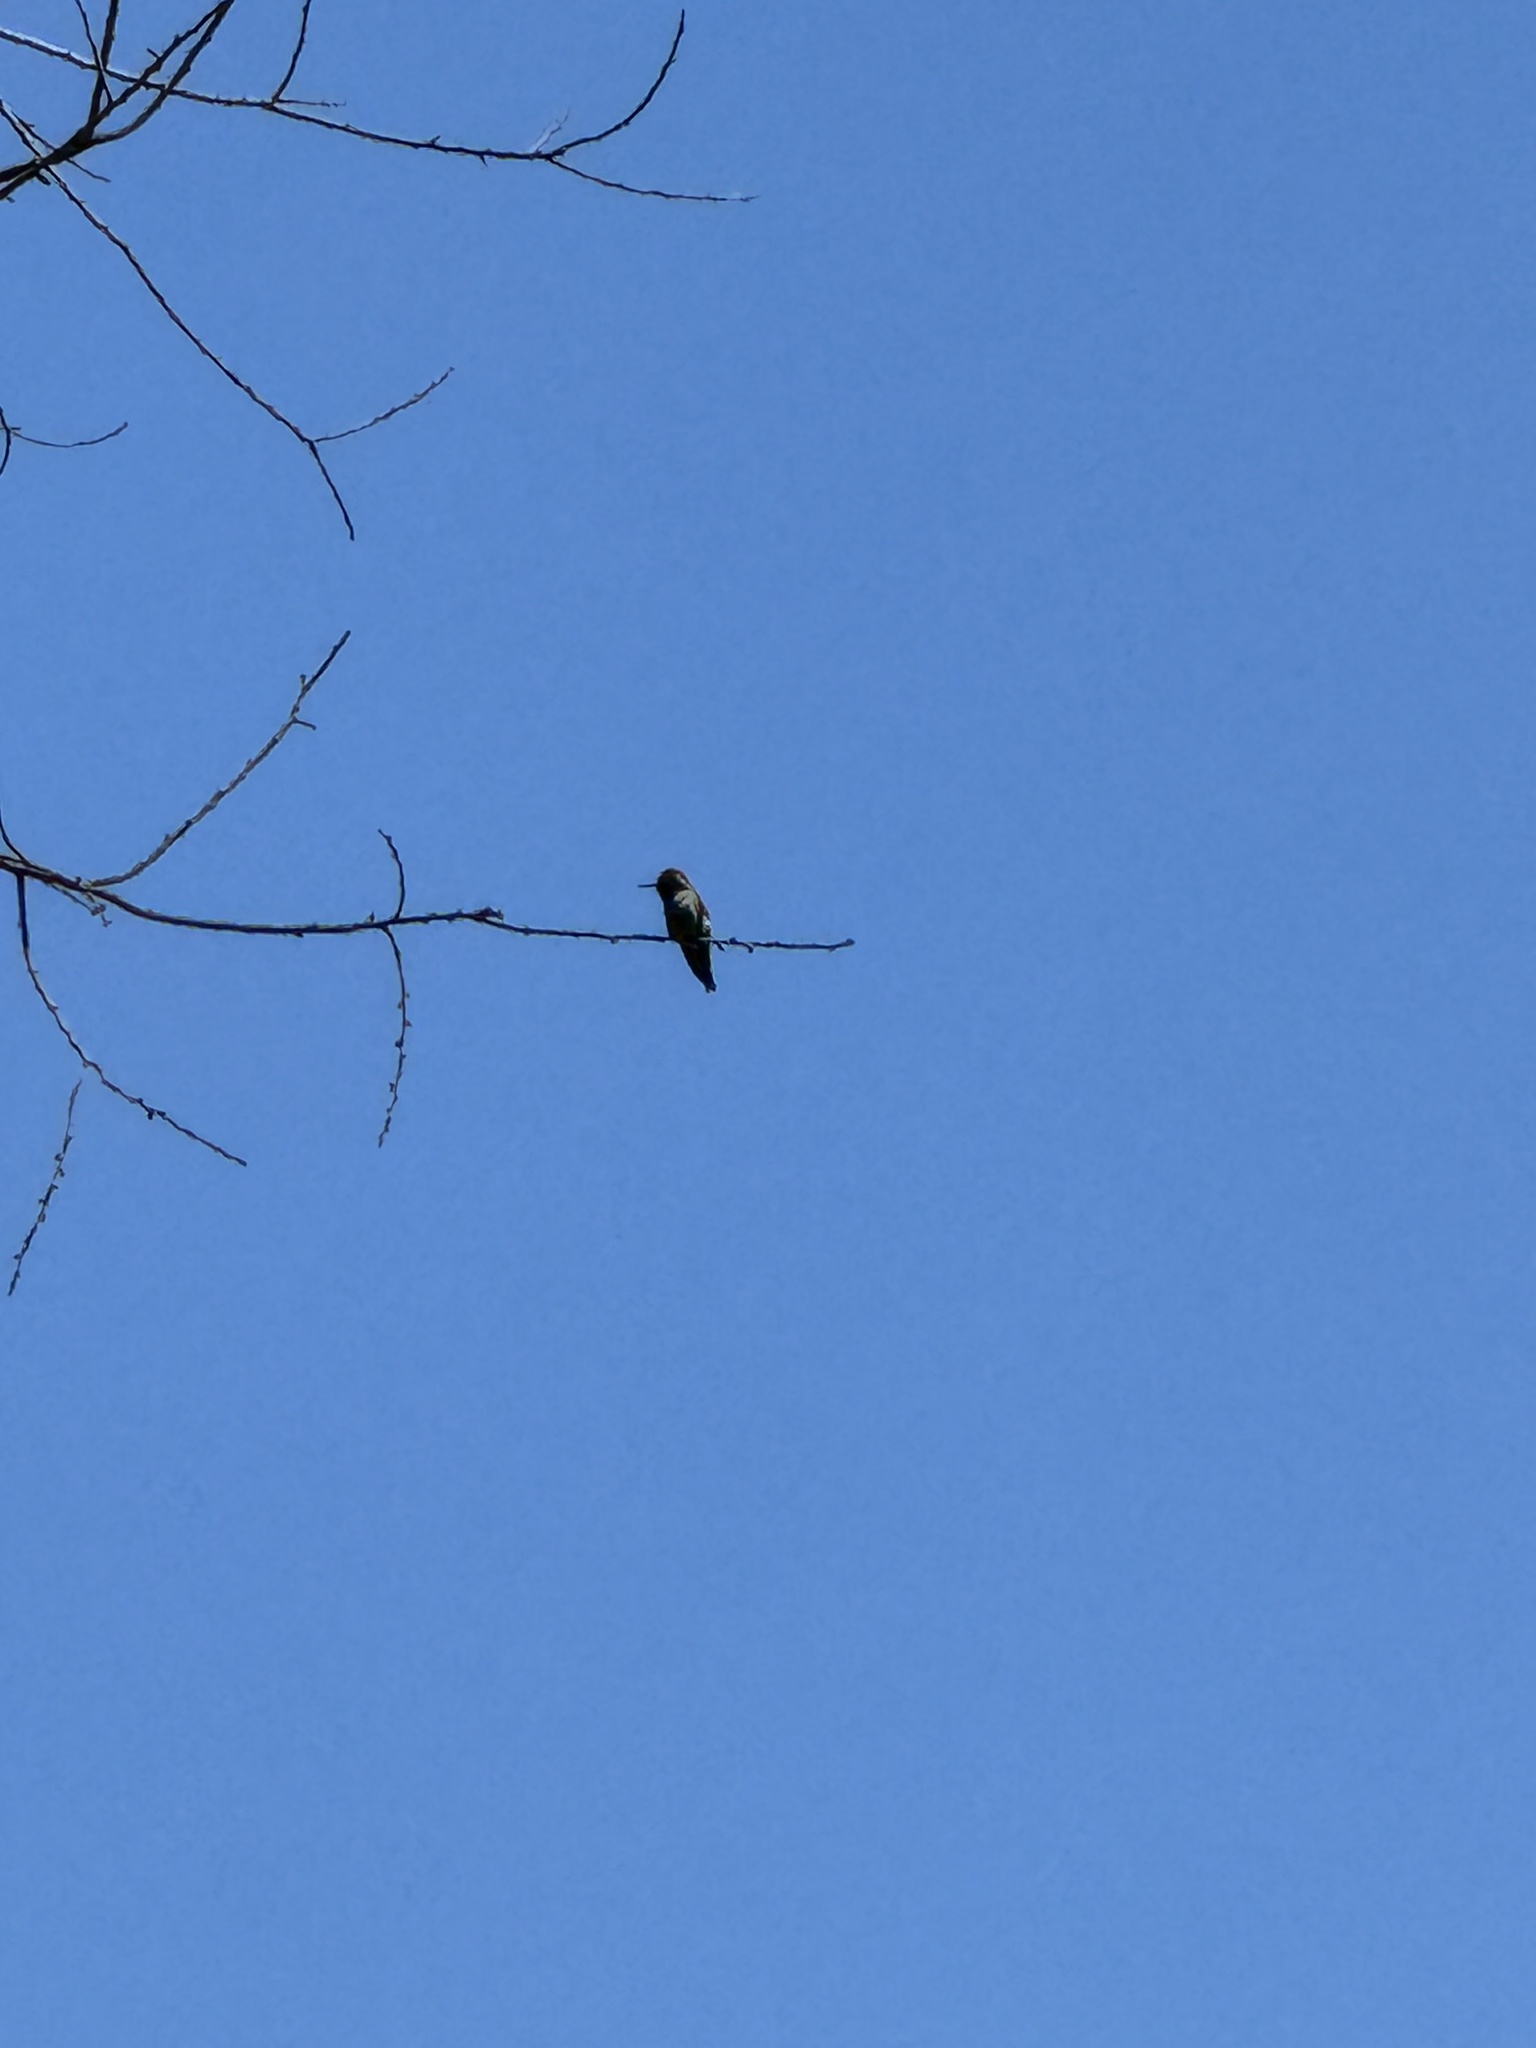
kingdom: Animalia
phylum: Chordata
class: Aves
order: Apodiformes
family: Trochilidae
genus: Calypte
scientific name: Calypte anna
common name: Anna's hummingbird
